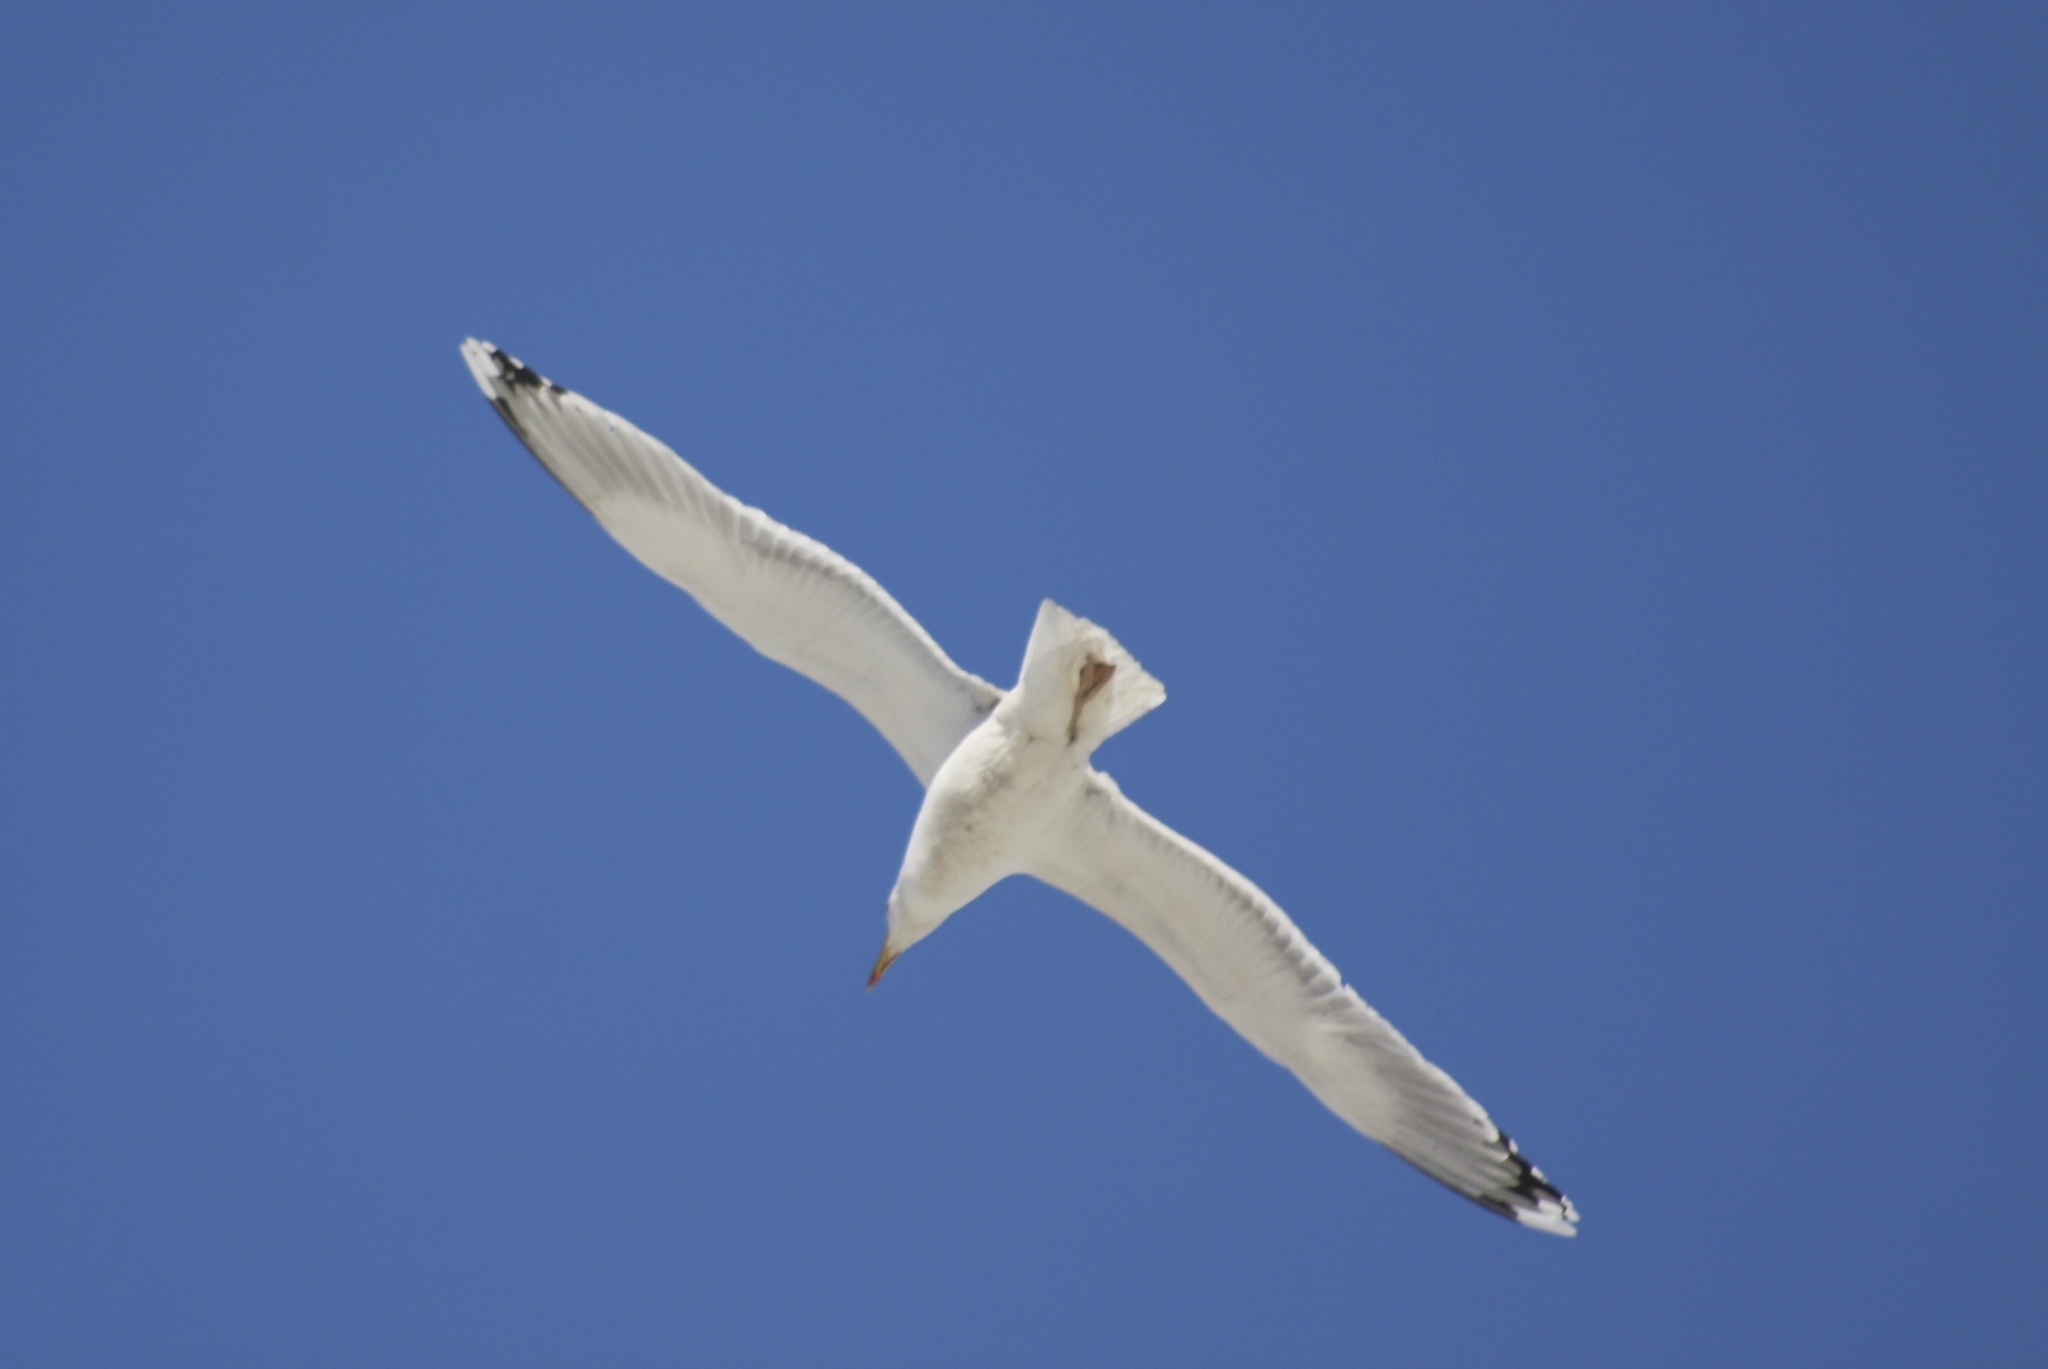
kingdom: Animalia
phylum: Chordata
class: Aves
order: Charadriiformes
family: Laridae
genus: Larus
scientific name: Larus argentatus
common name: Herring gull
